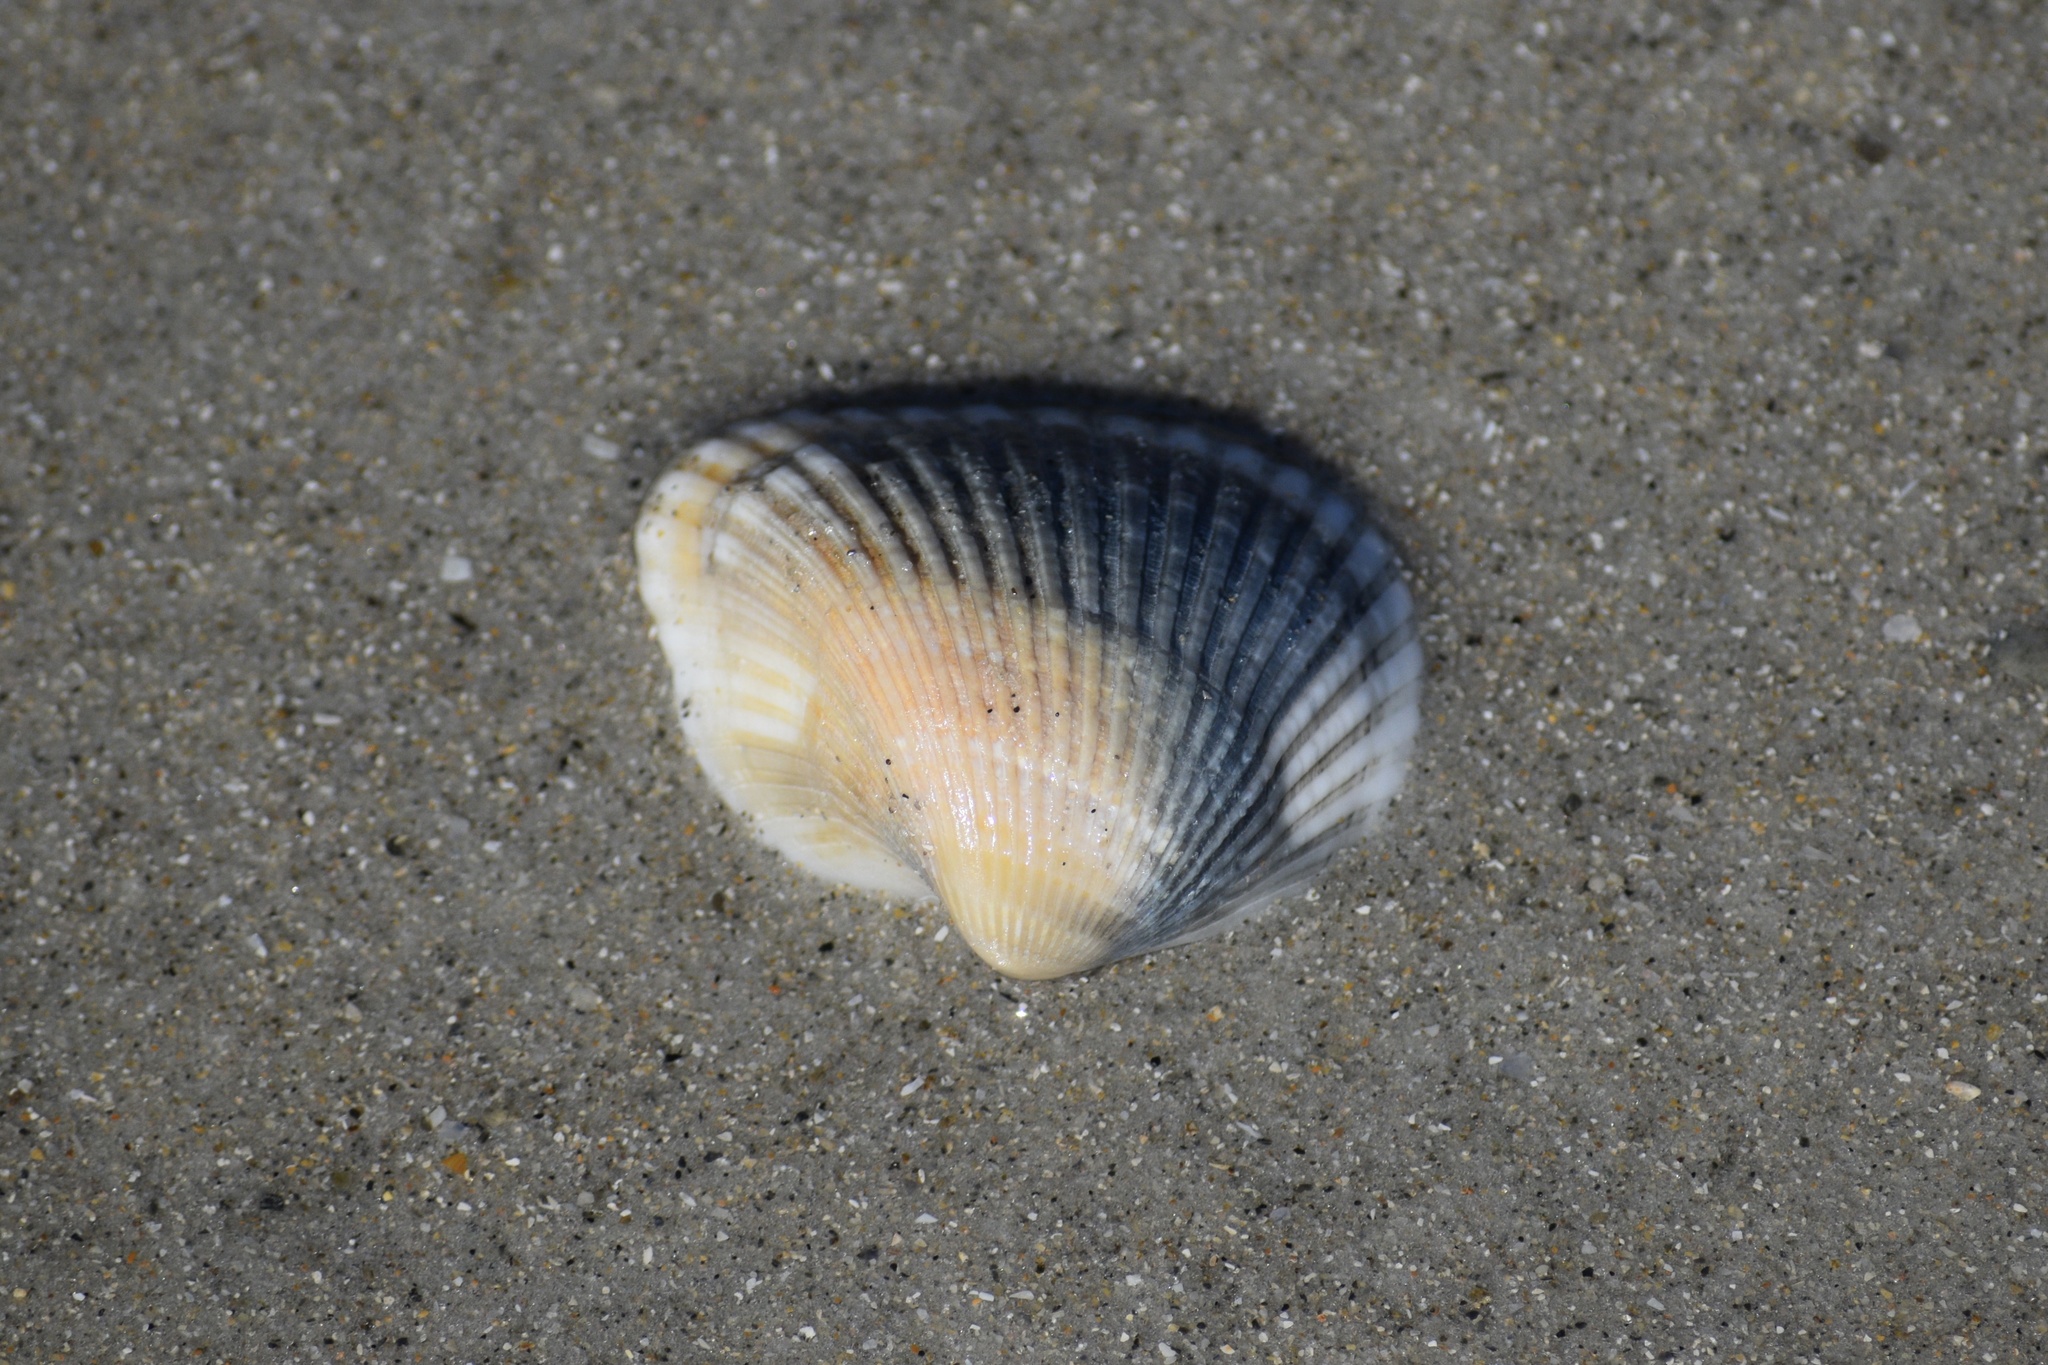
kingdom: Animalia
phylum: Mollusca
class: Bivalvia
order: Arcida
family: Noetiidae
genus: Noetia
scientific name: Noetia ponderosa
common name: Ponderous ark
